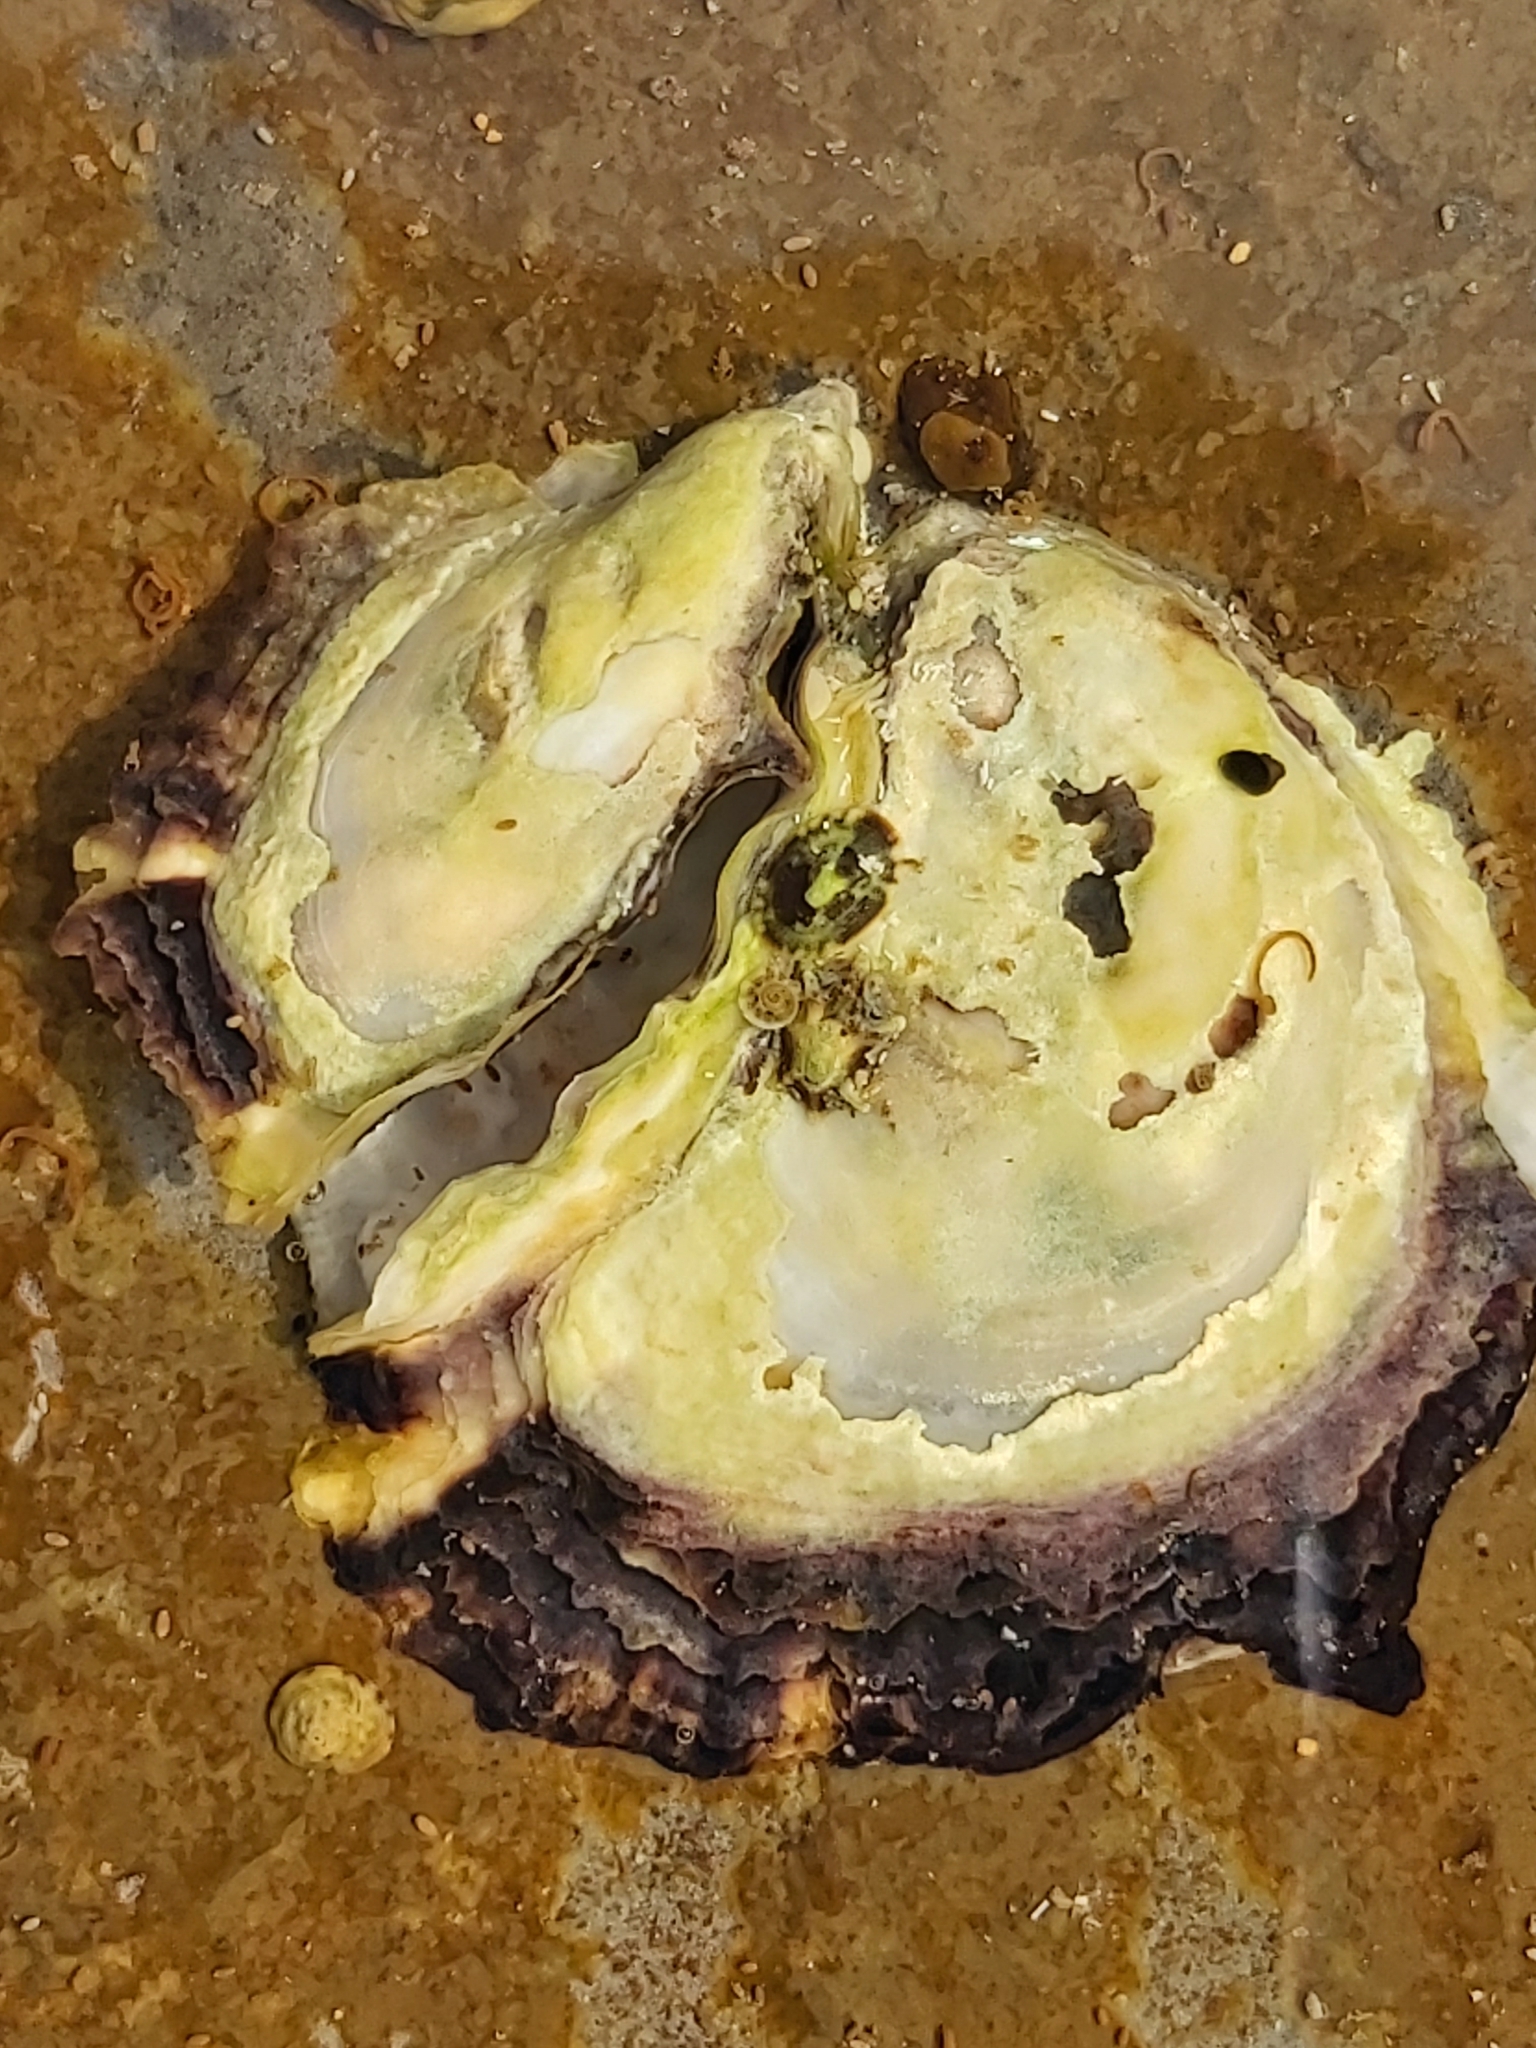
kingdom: Animalia
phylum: Mollusca
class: Bivalvia
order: Ostreida
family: Ostreidae
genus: Saccostrea
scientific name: Saccostrea glomerata
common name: Sydney cupped oyster
